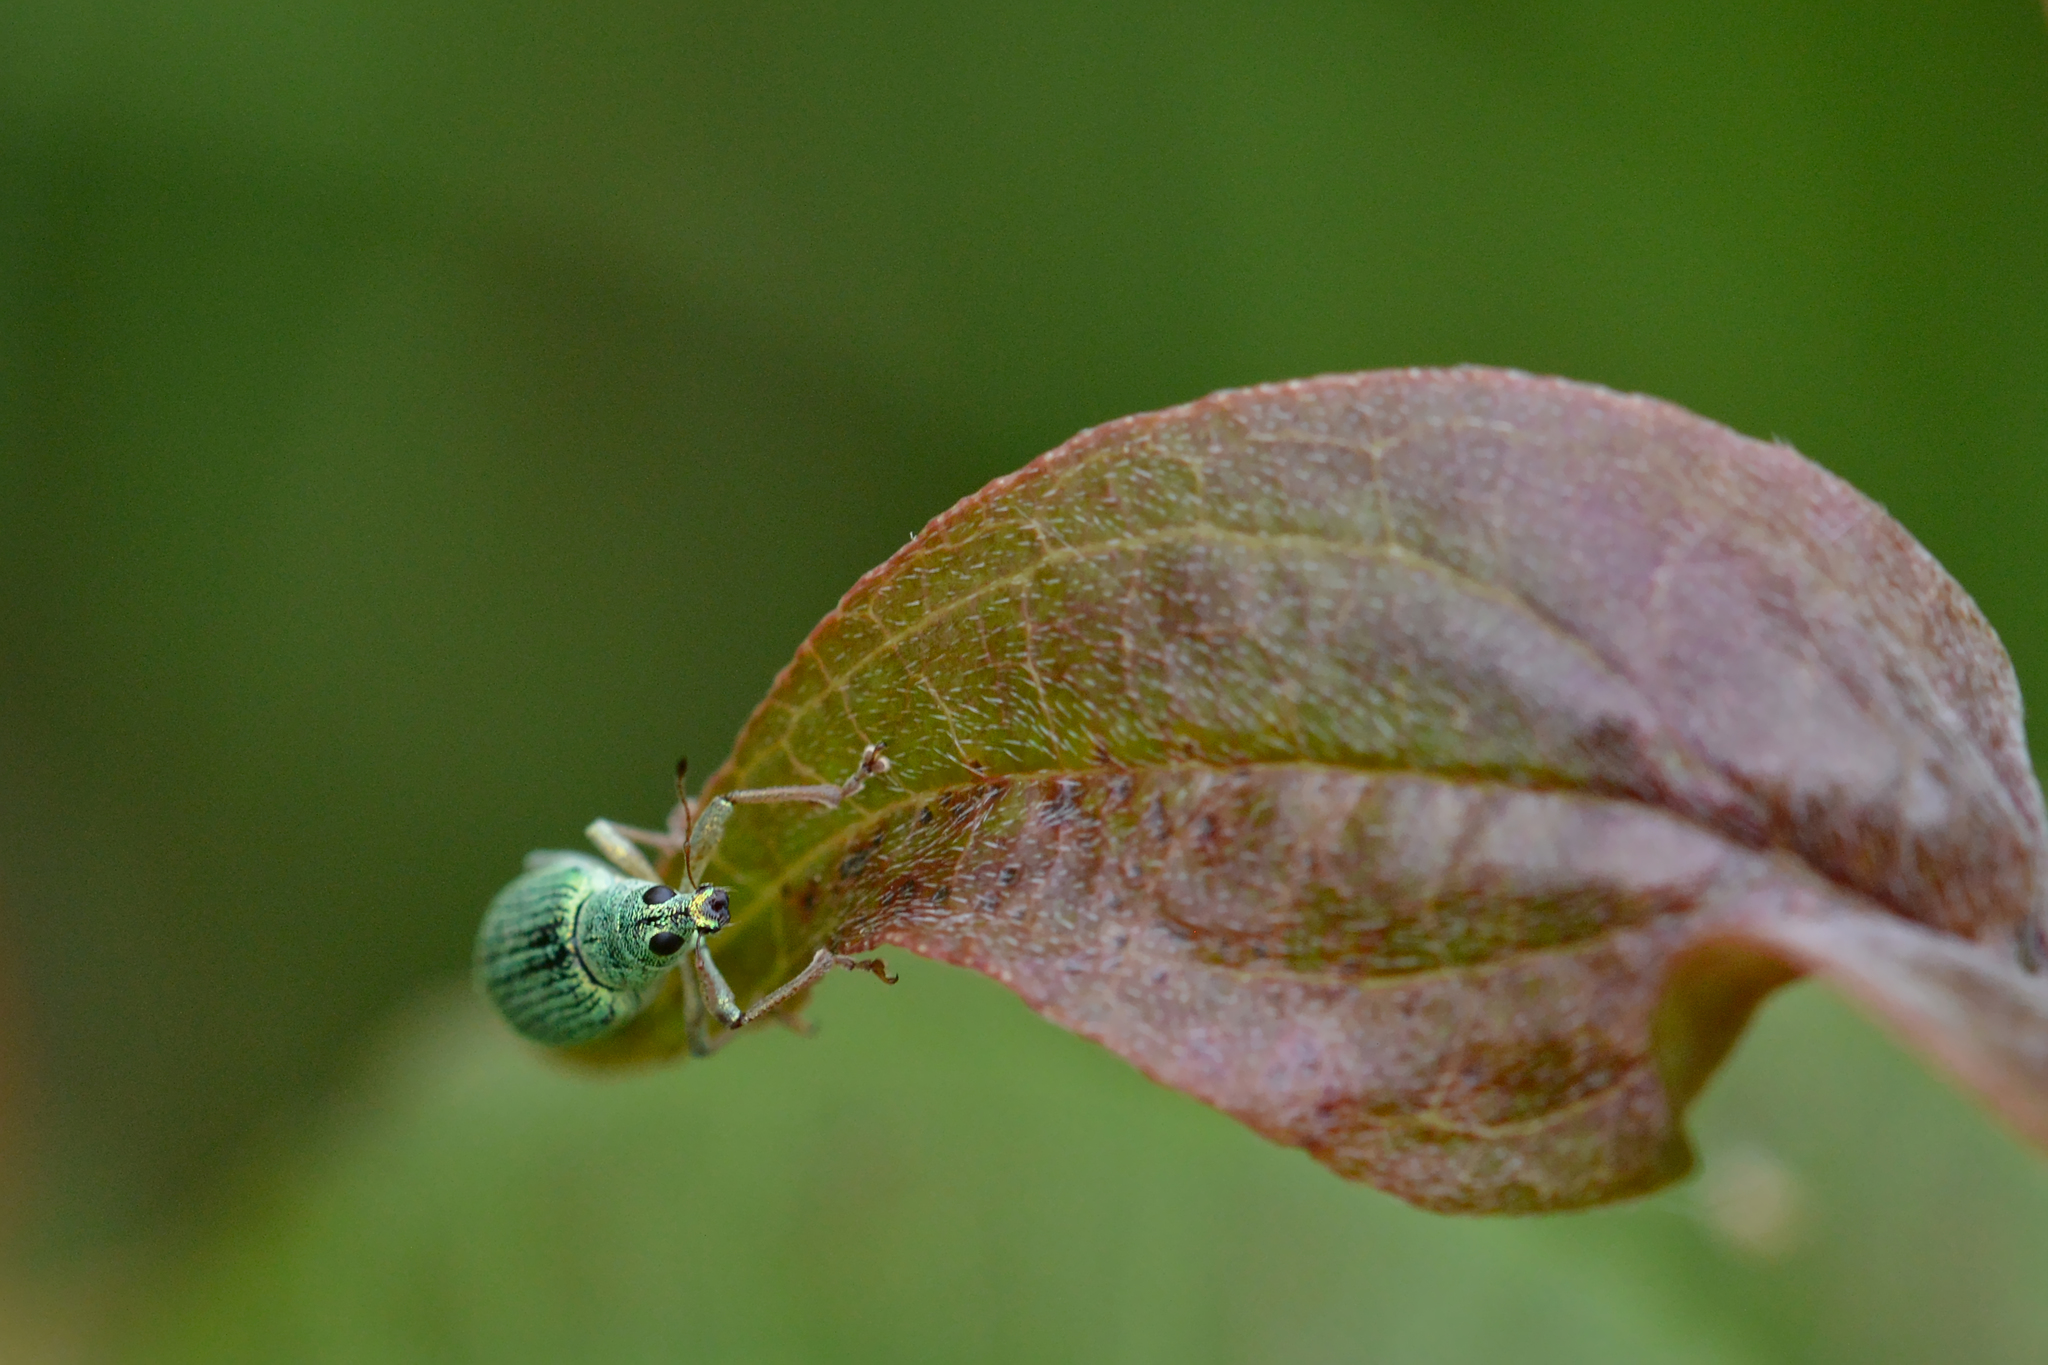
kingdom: Animalia
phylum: Arthropoda
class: Insecta
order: Coleoptera
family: Curculionidae
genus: Polydrusus
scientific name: Polydrusus formosus
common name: Weevil
